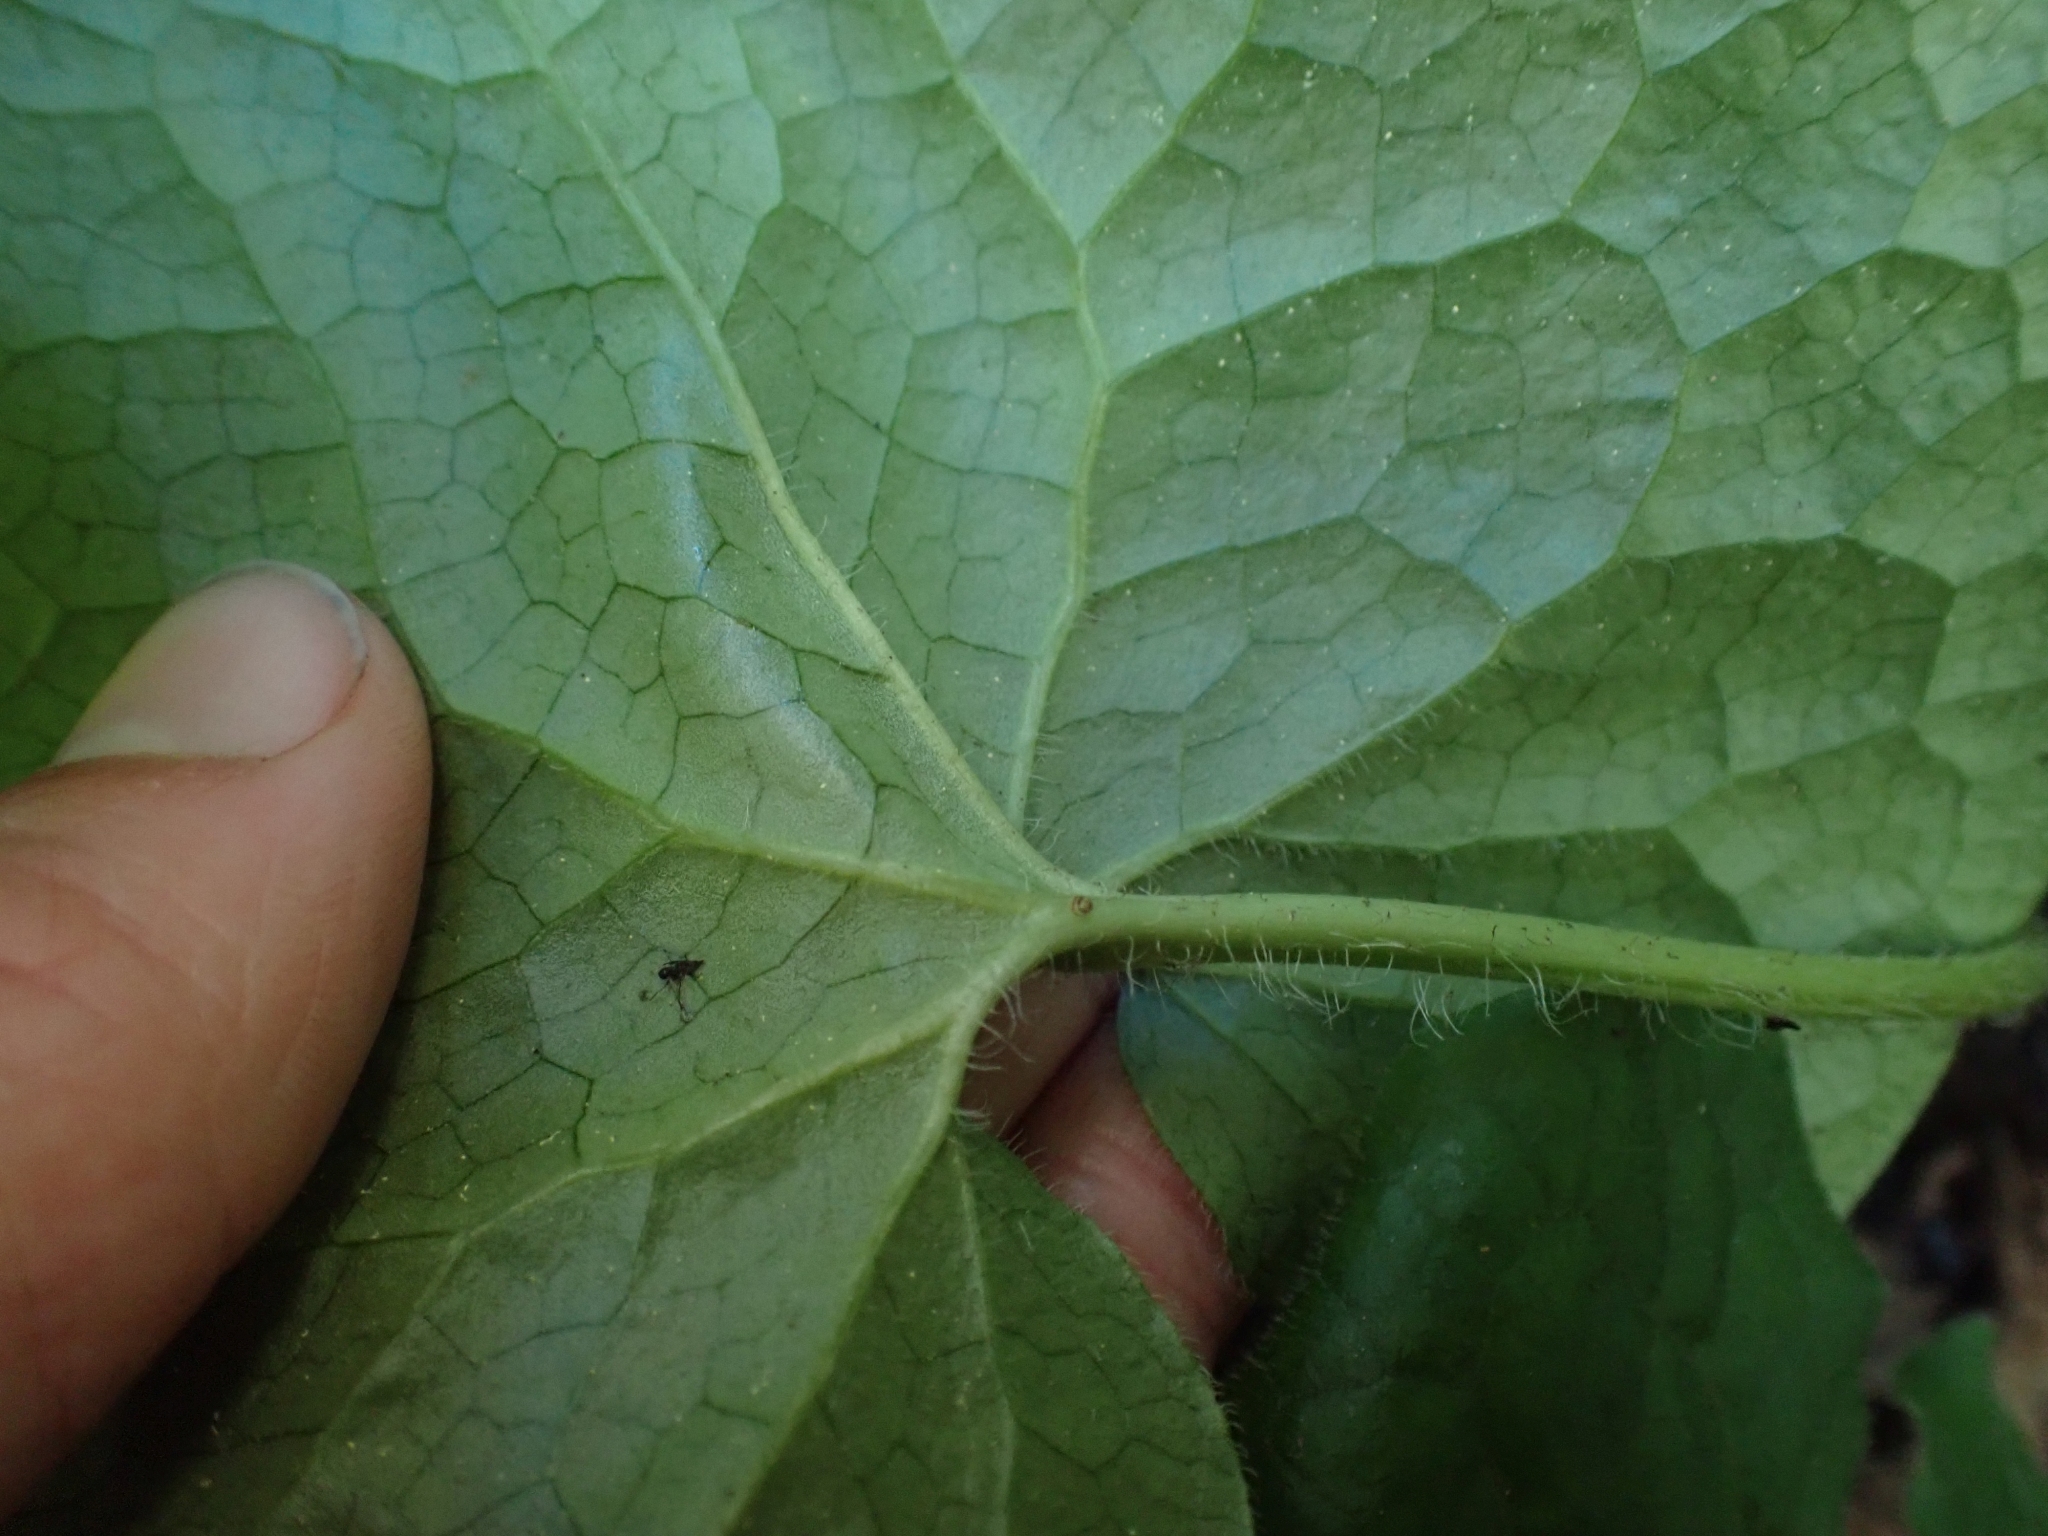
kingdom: Plantae
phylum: Tracheophyta
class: Magnoliopsida
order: Piperales
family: Aristolochiaceae
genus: Asarum
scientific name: Asarum caudatum
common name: Wild ginger
